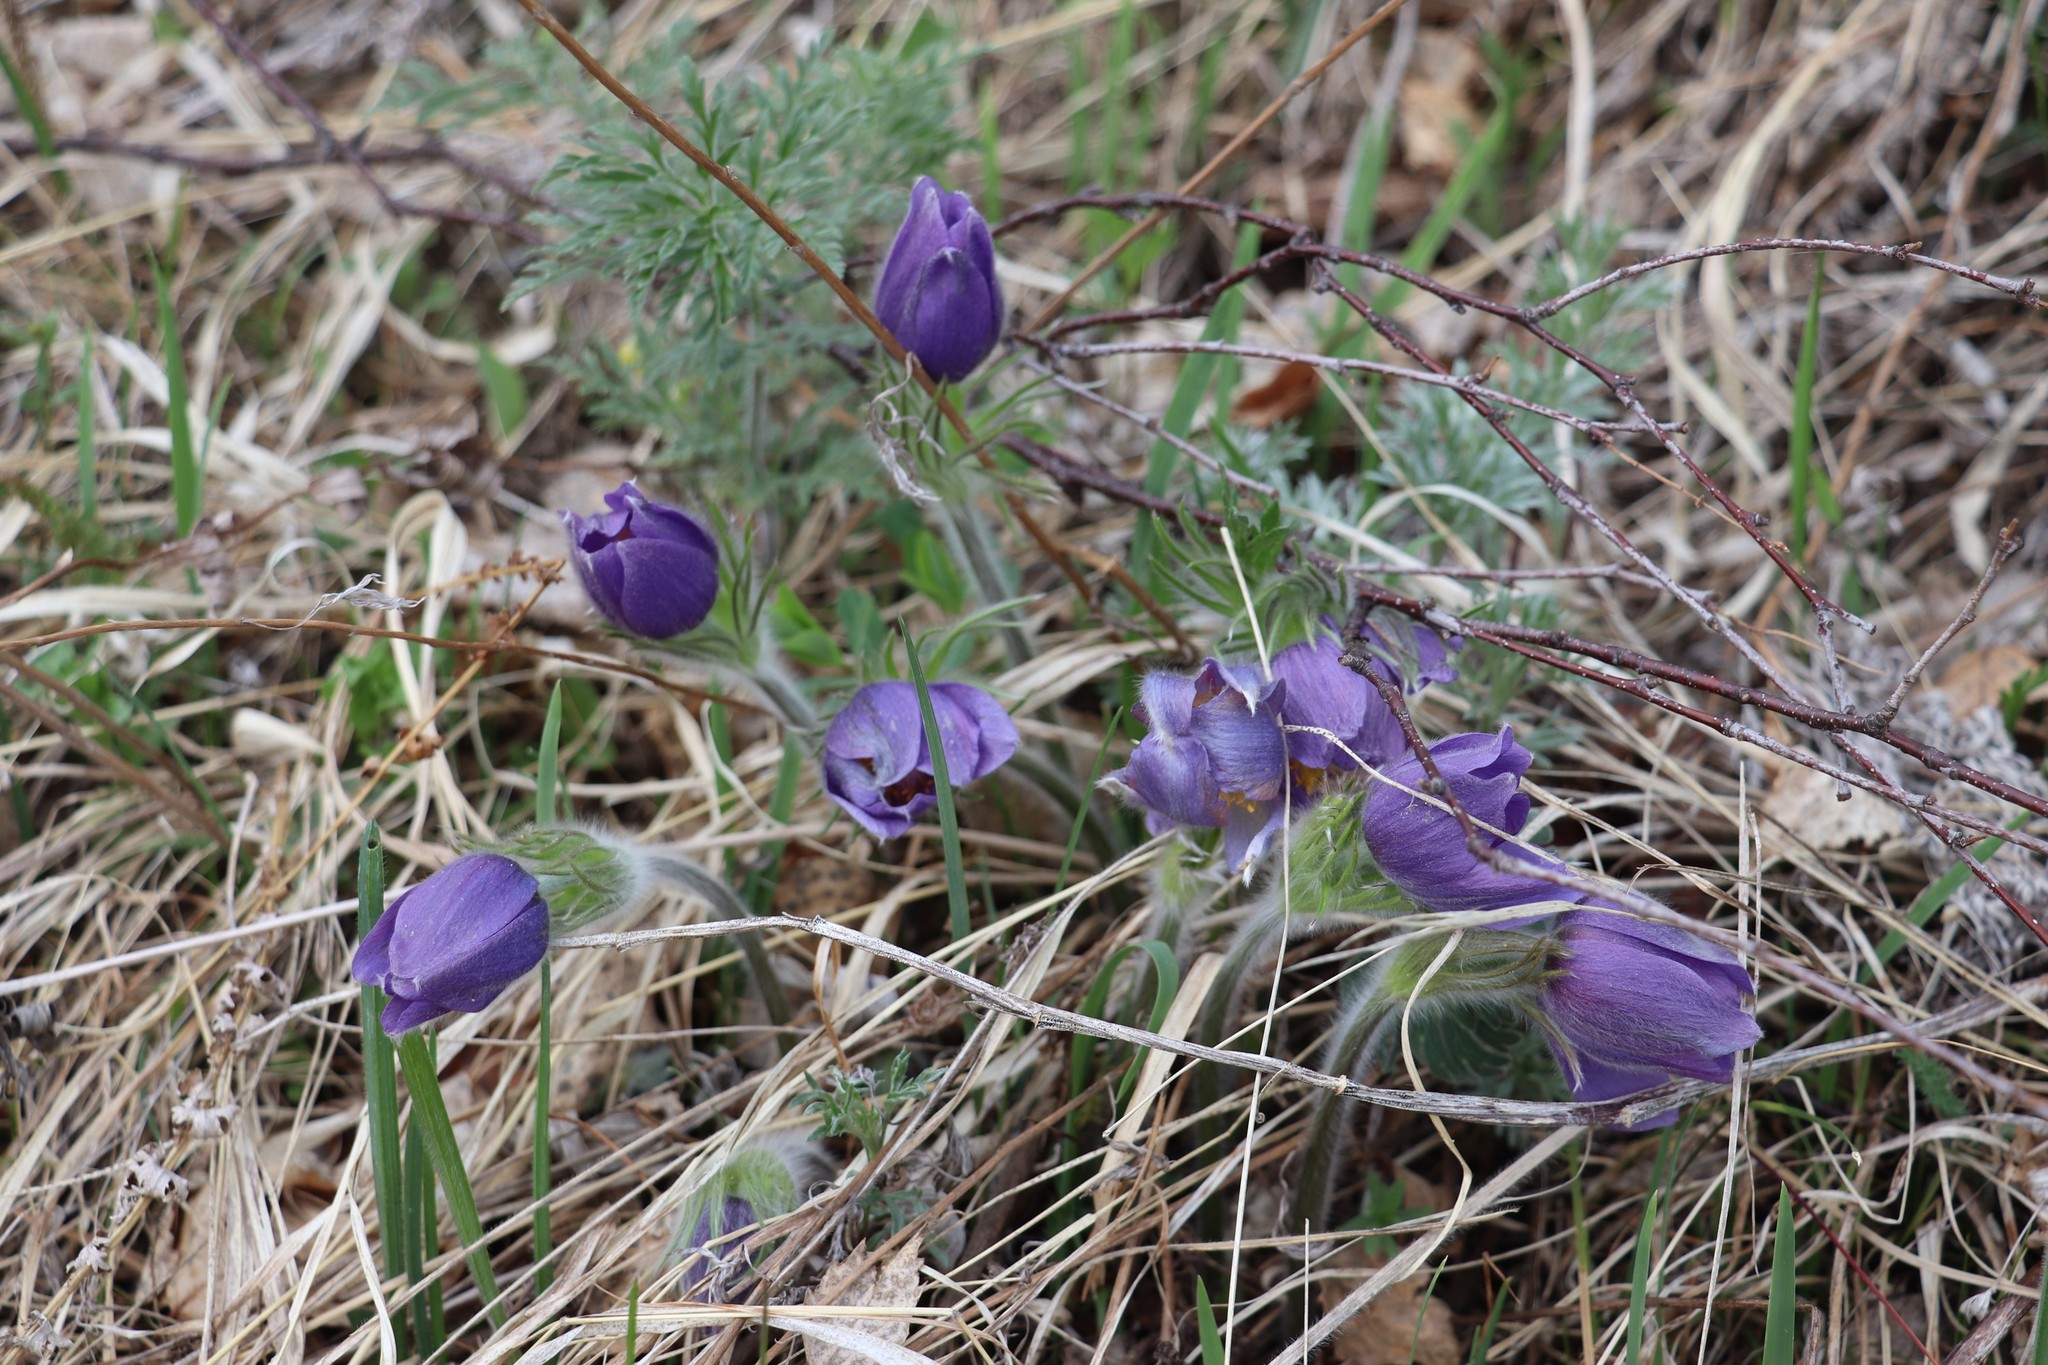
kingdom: Plantae
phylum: Tracheophyta
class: Magnoliopsida
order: Ranunculales
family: Ranunculaceae
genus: Pulsatilla
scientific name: Pulsatilla patens
